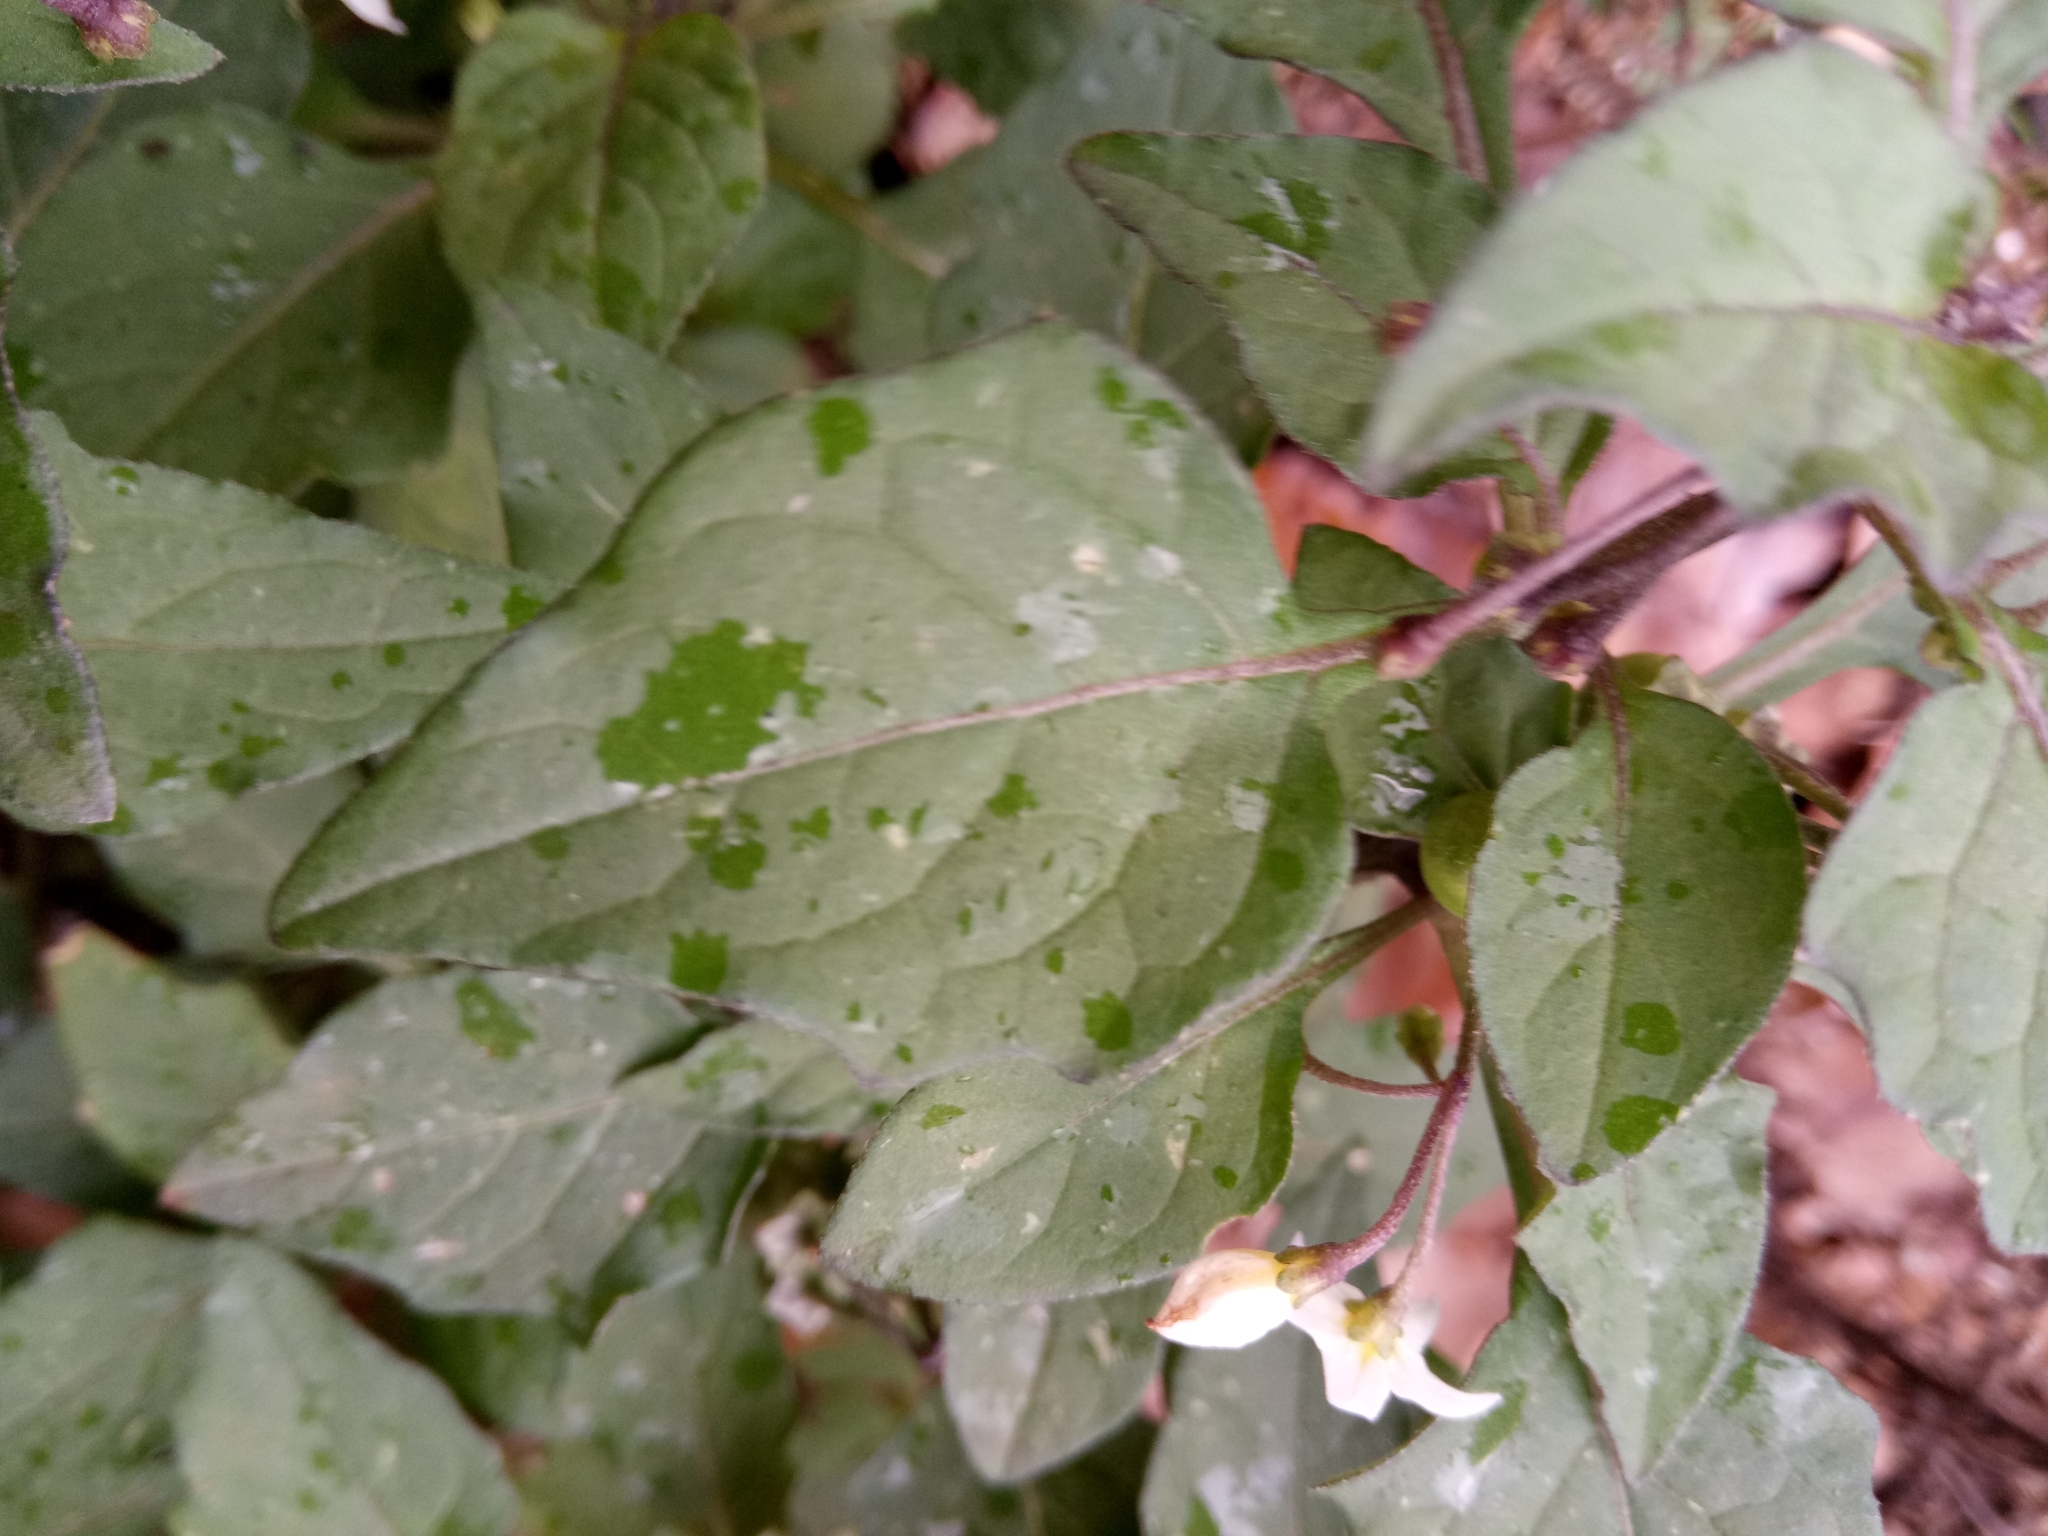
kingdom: Plantae
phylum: Tracheophyta
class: Magnoliopsida
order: Solanales
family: Solanaceae
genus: Solanum
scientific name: Solanum nigrum
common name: Black nightshade
